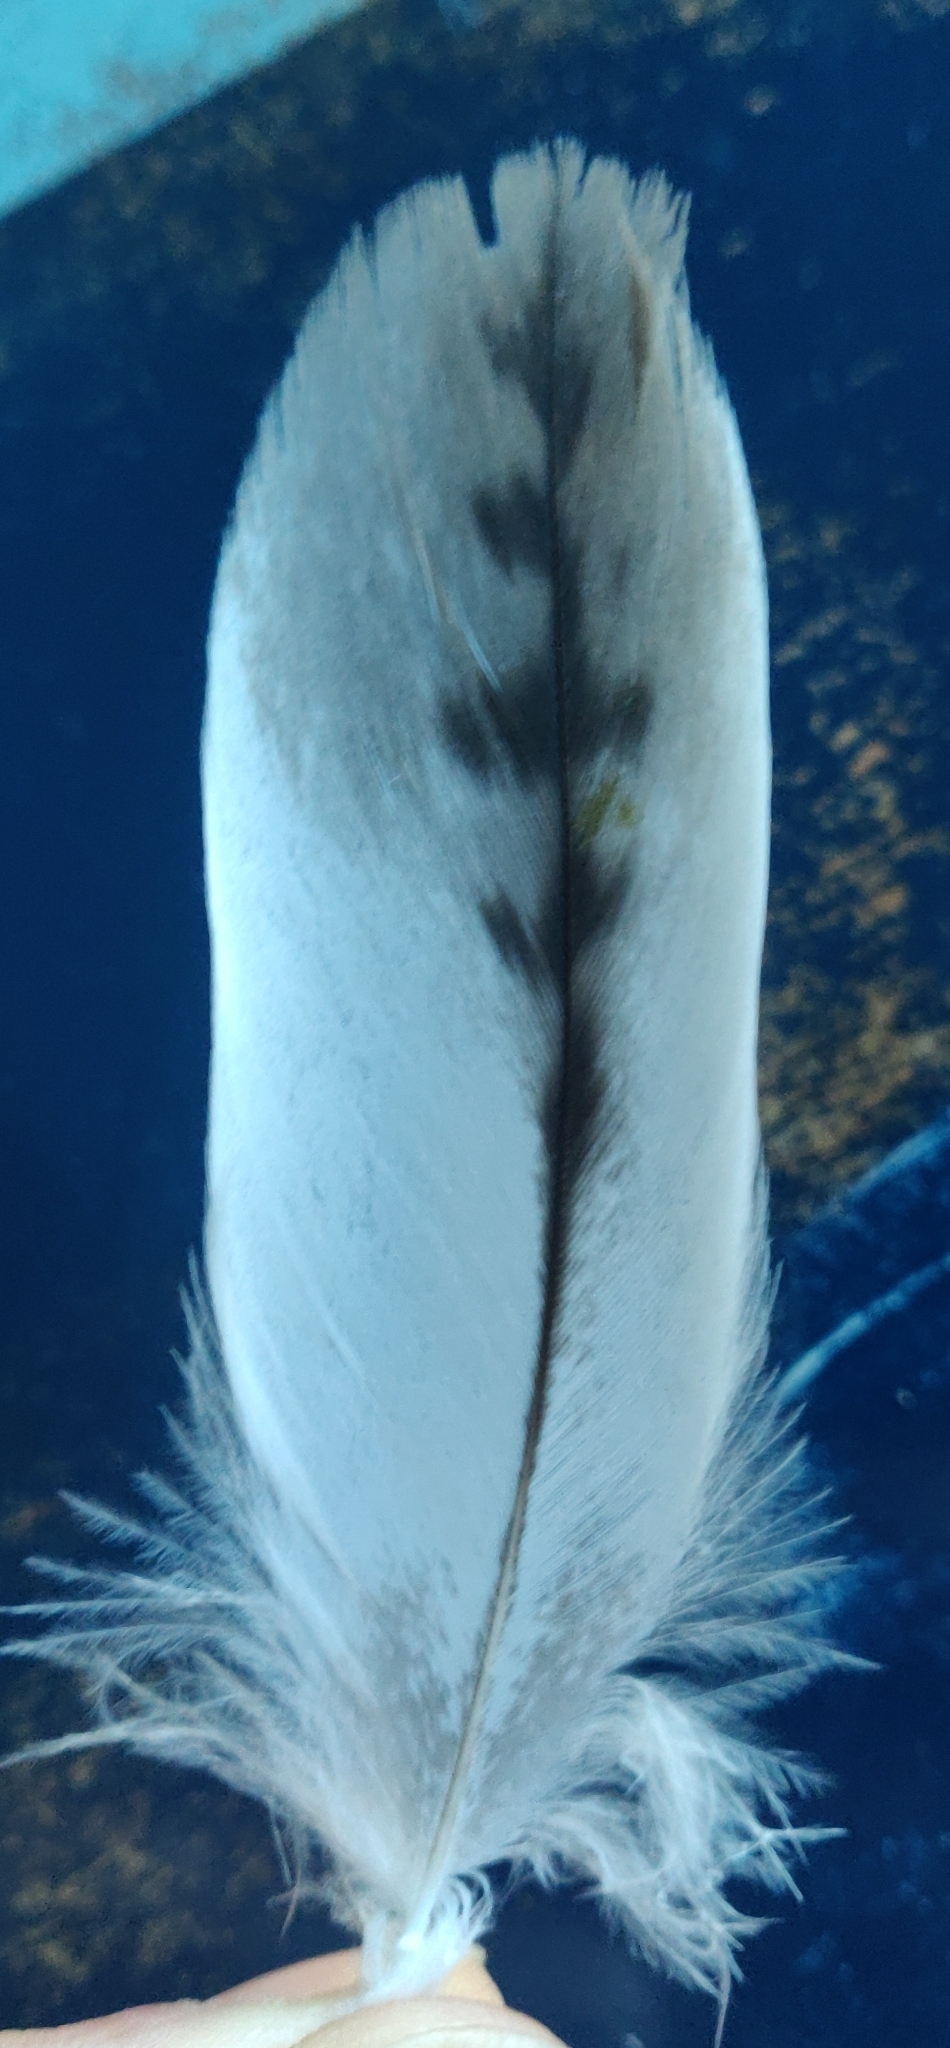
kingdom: Animalia
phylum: Chordata
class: Aves
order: Accipitriformes
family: Accipitridae
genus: Buteo
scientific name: Buteo jamaicensis
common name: Red-tailed hawk
